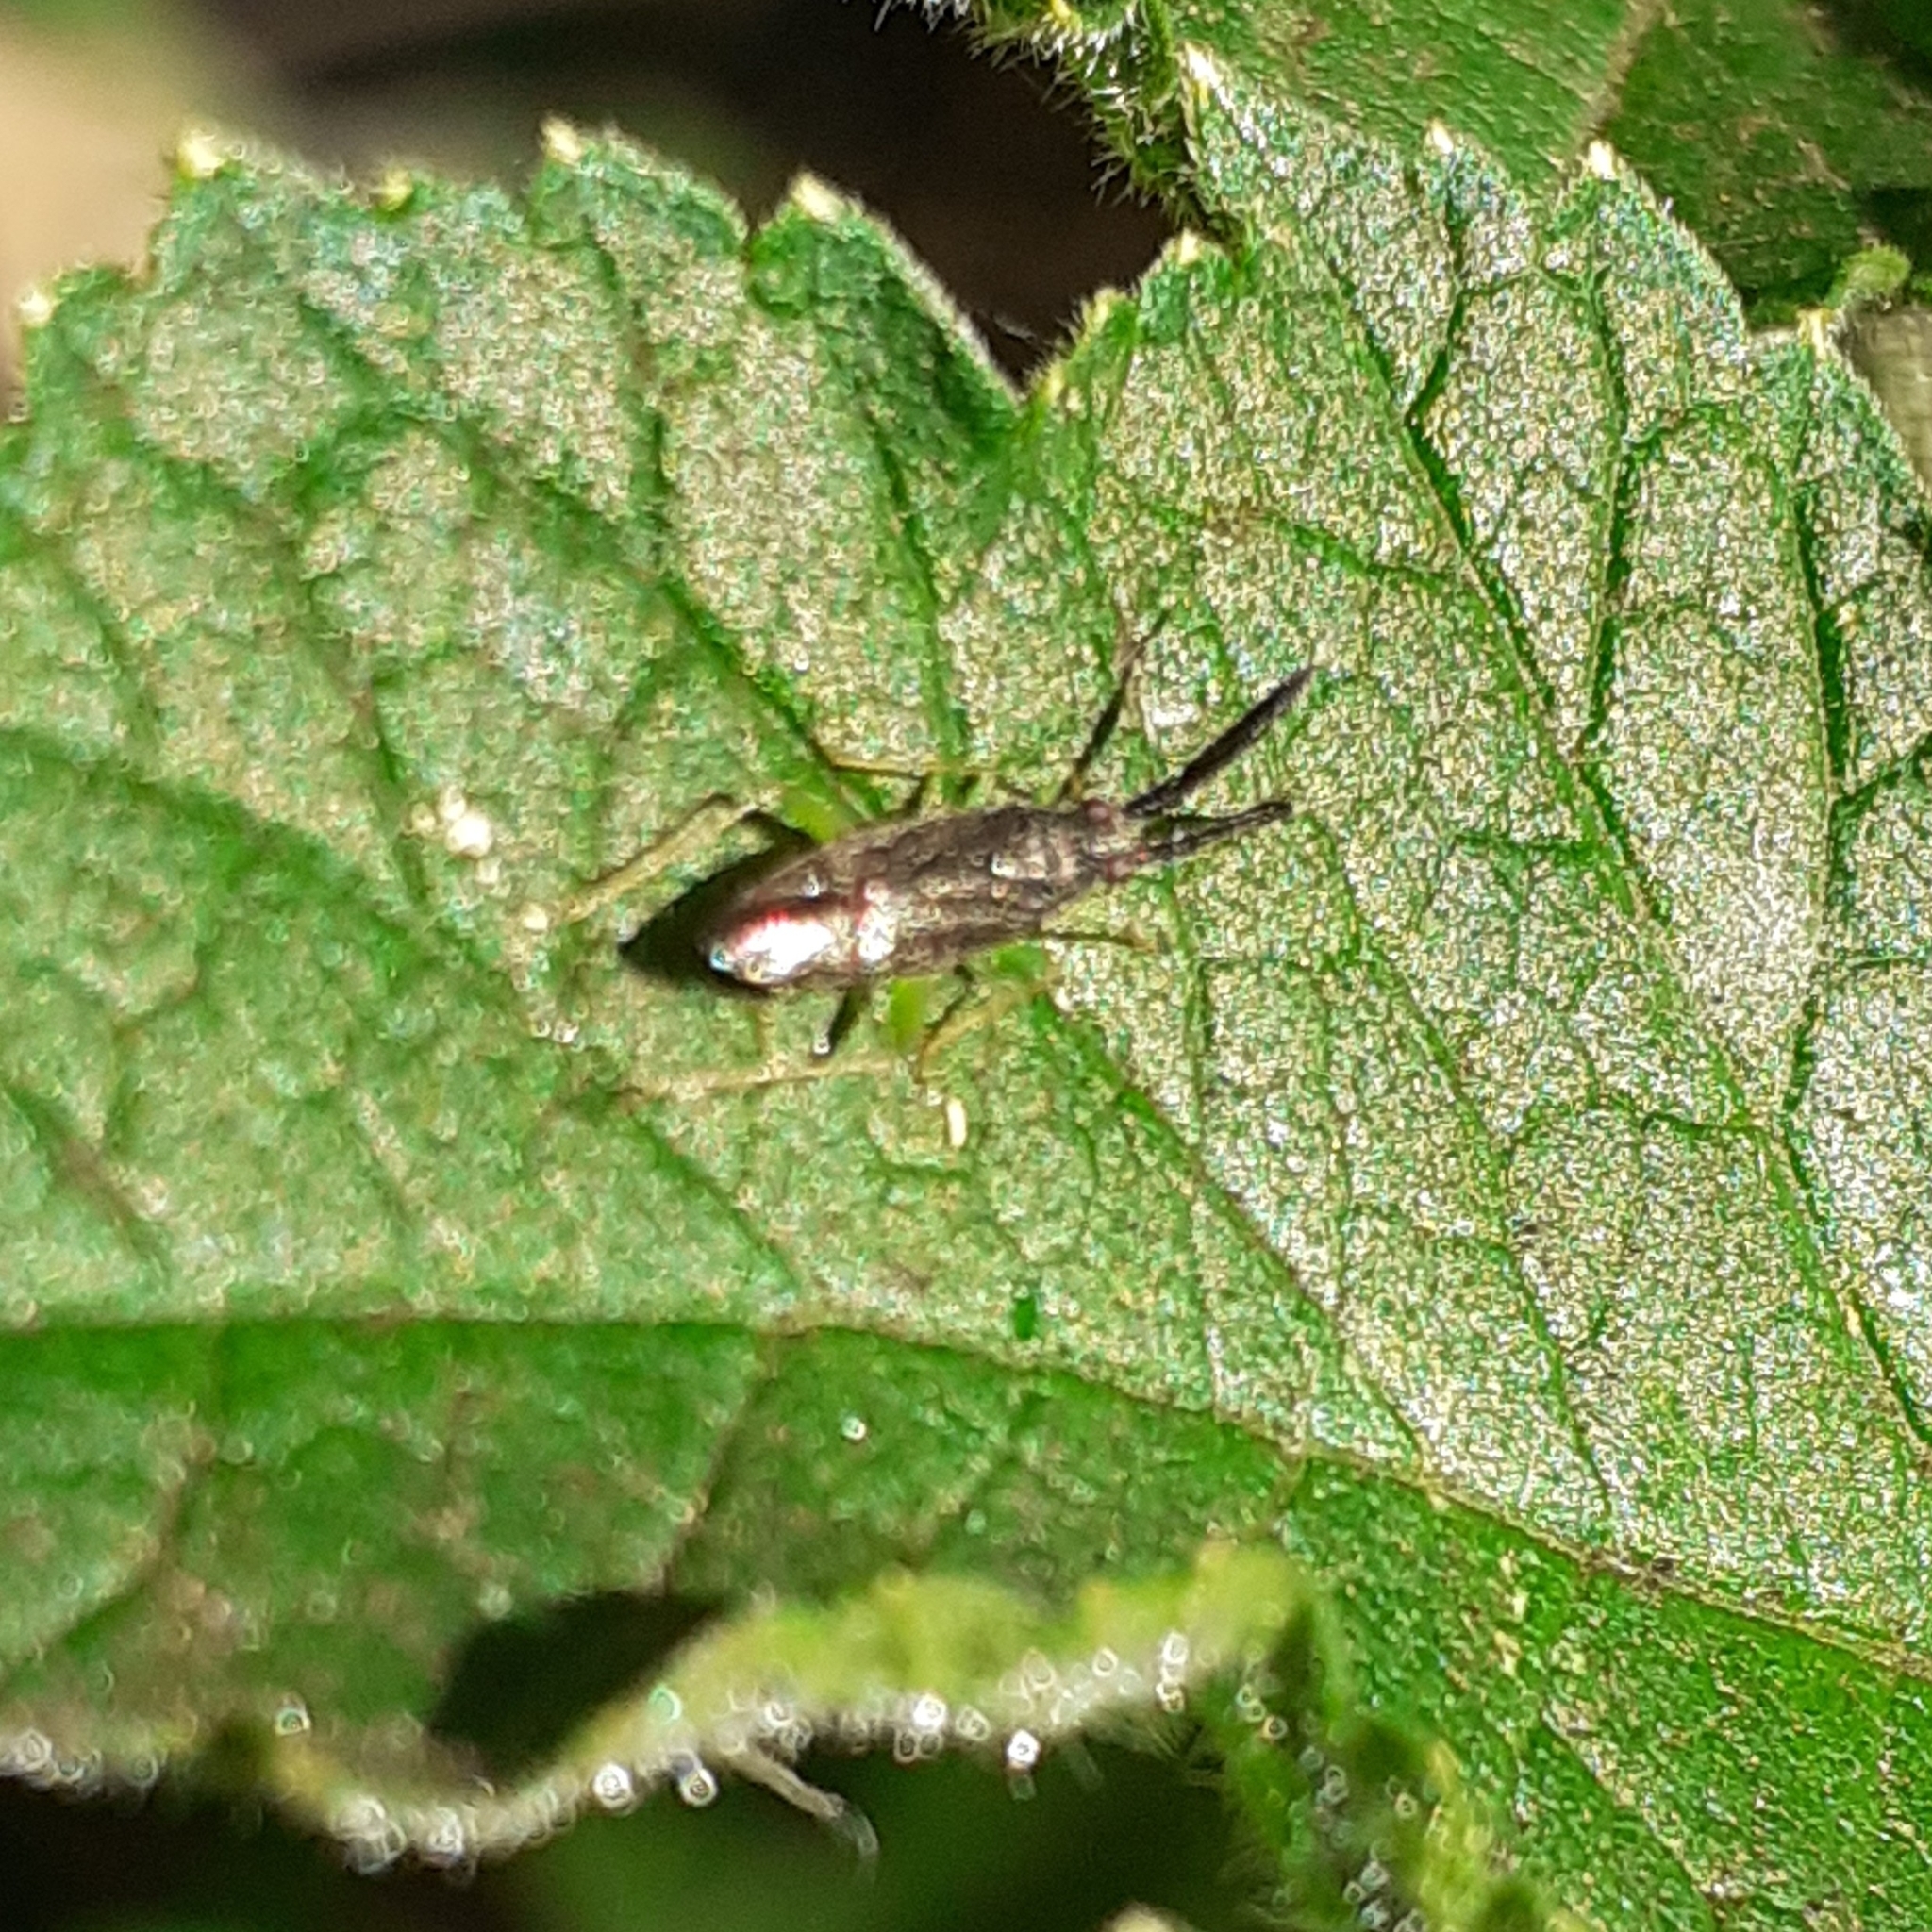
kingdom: Animalia
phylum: Arthropoda
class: Insecta
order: Hemiptera
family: Miridae
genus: Heterotoma
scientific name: Heterotoma planicornis
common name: Plant bug
